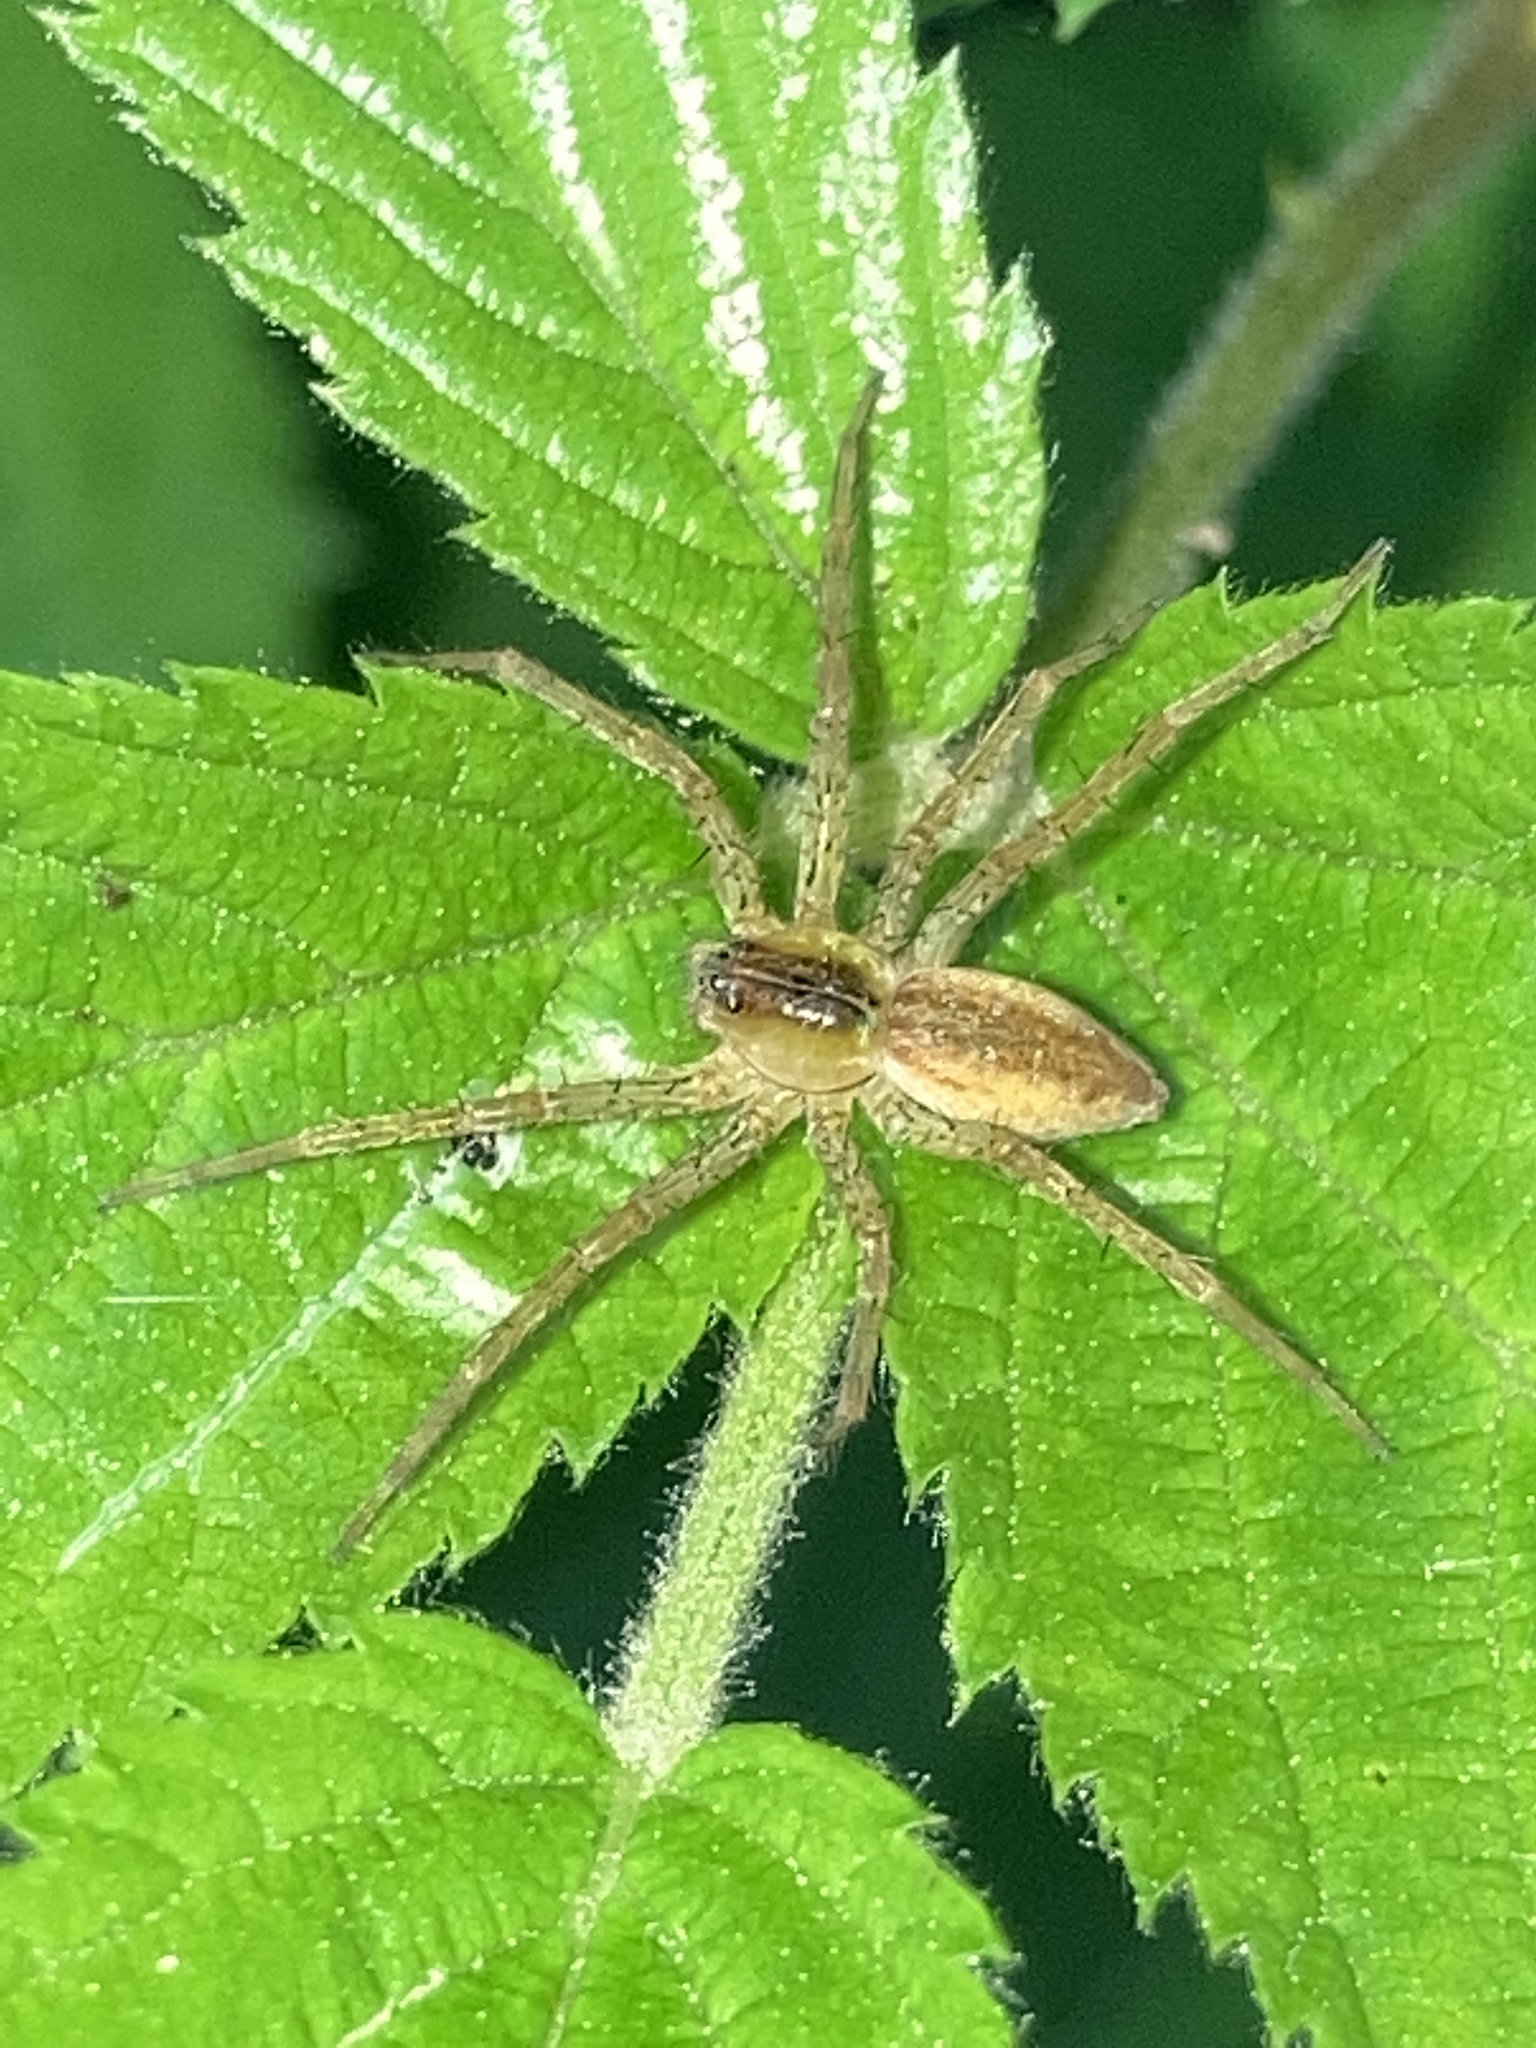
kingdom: Animalia
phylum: Arthropoda
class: Arachnida
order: Araneae
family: Pisauridae
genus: Dolomedes
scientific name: Dolomedes triton
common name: Six-spotted fishing spider
